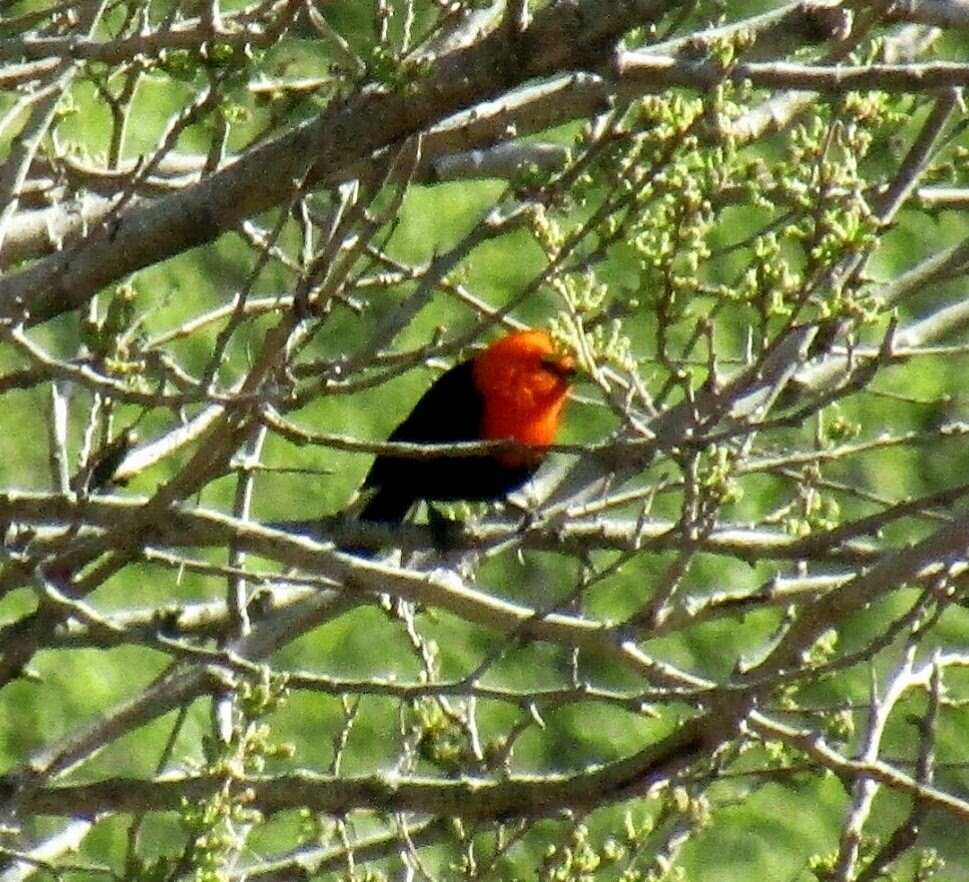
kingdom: Animalia
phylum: Chordata
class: Aves
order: Passeriformes
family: Icteridae
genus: Amblyramphus
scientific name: Amblyramphus holosericeus
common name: Scarlet-headed blackbird
